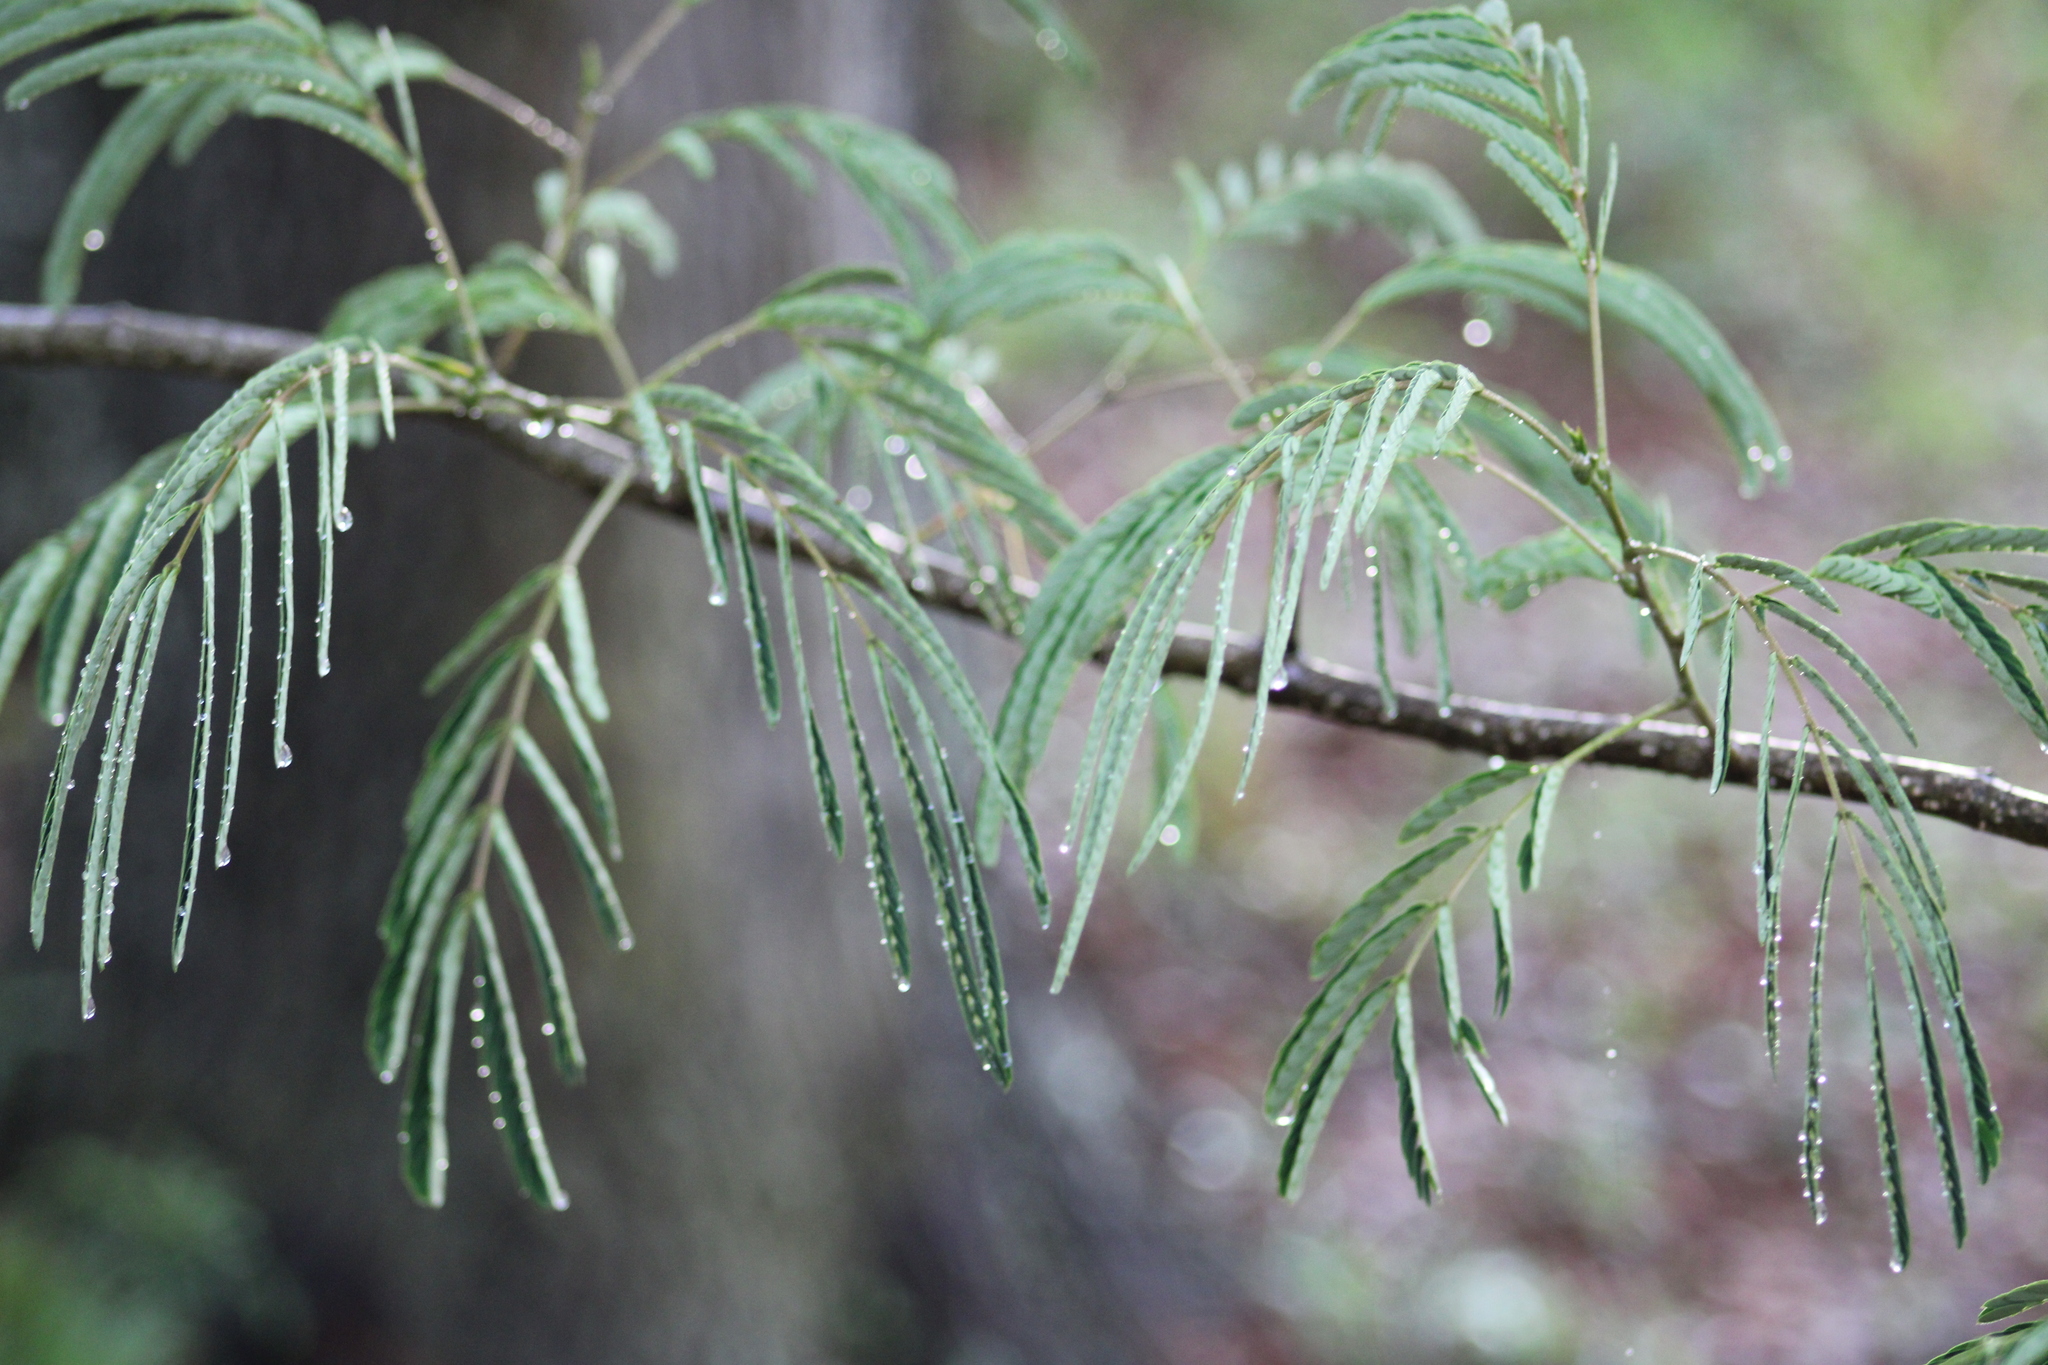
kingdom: Plantae
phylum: Tracheophyta
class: Magnoliopsida
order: Fabales
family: Fabaceae
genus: Albizia
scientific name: Albizia julibrissin
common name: Silktree
